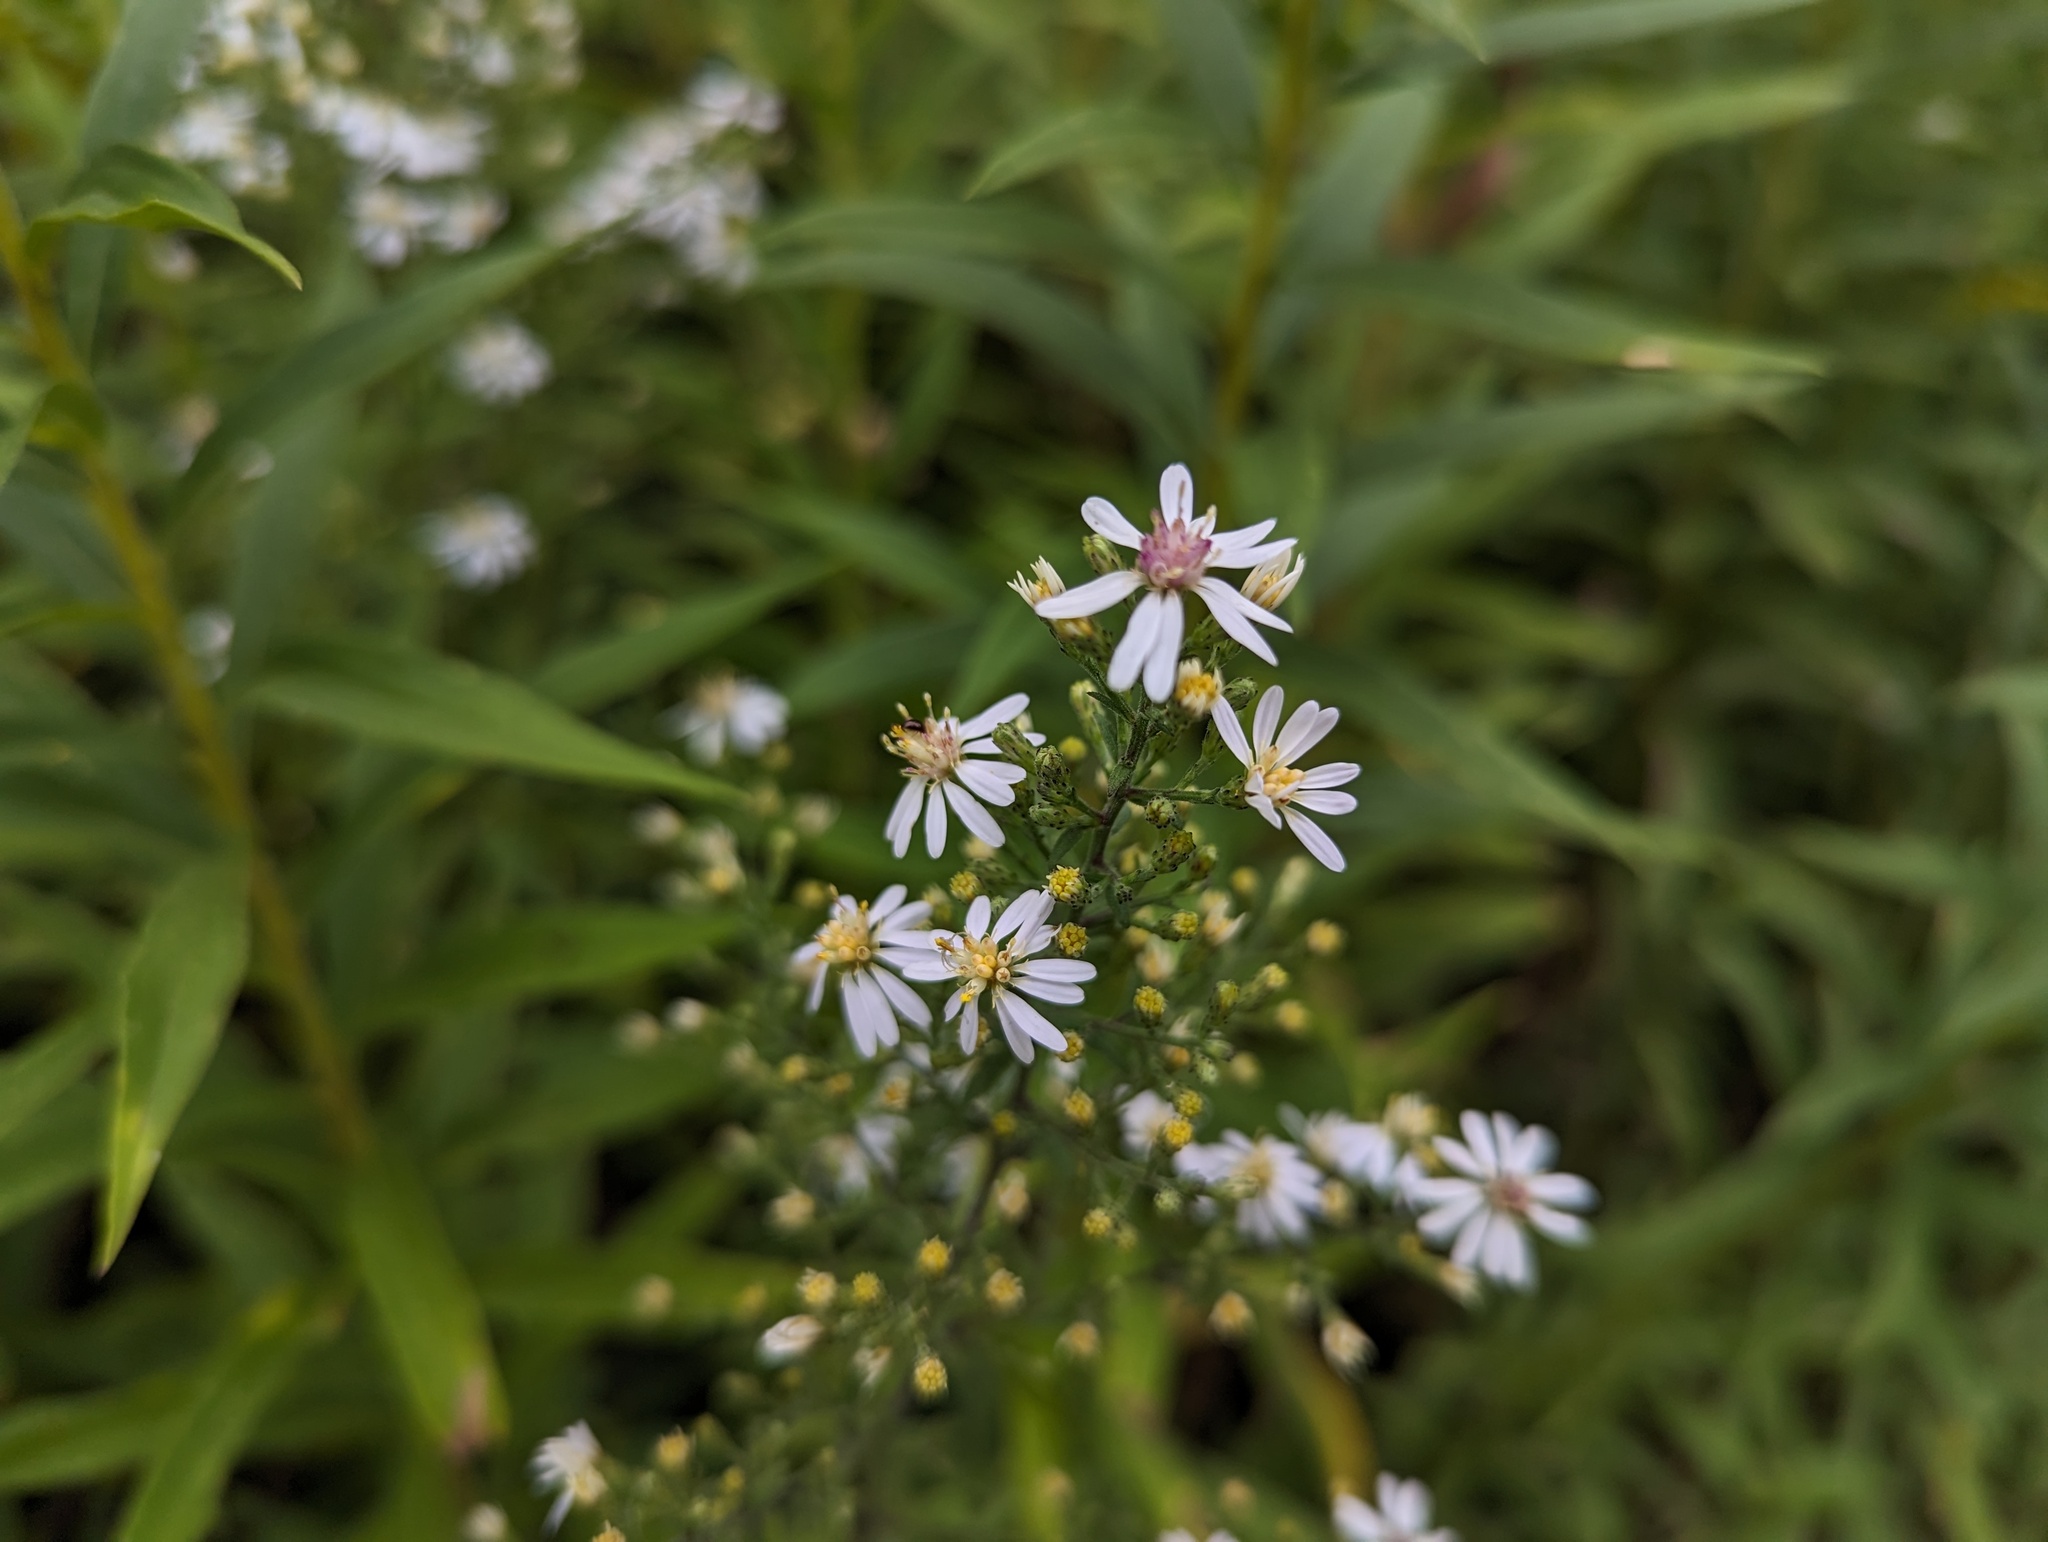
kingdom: Plantae
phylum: Tracheophyta
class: Magnoliopsida
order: Asterales
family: Asteraceae
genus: Symphyotrichum
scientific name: Symphyotrichum urophyllum
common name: Arrow-leaved aster
